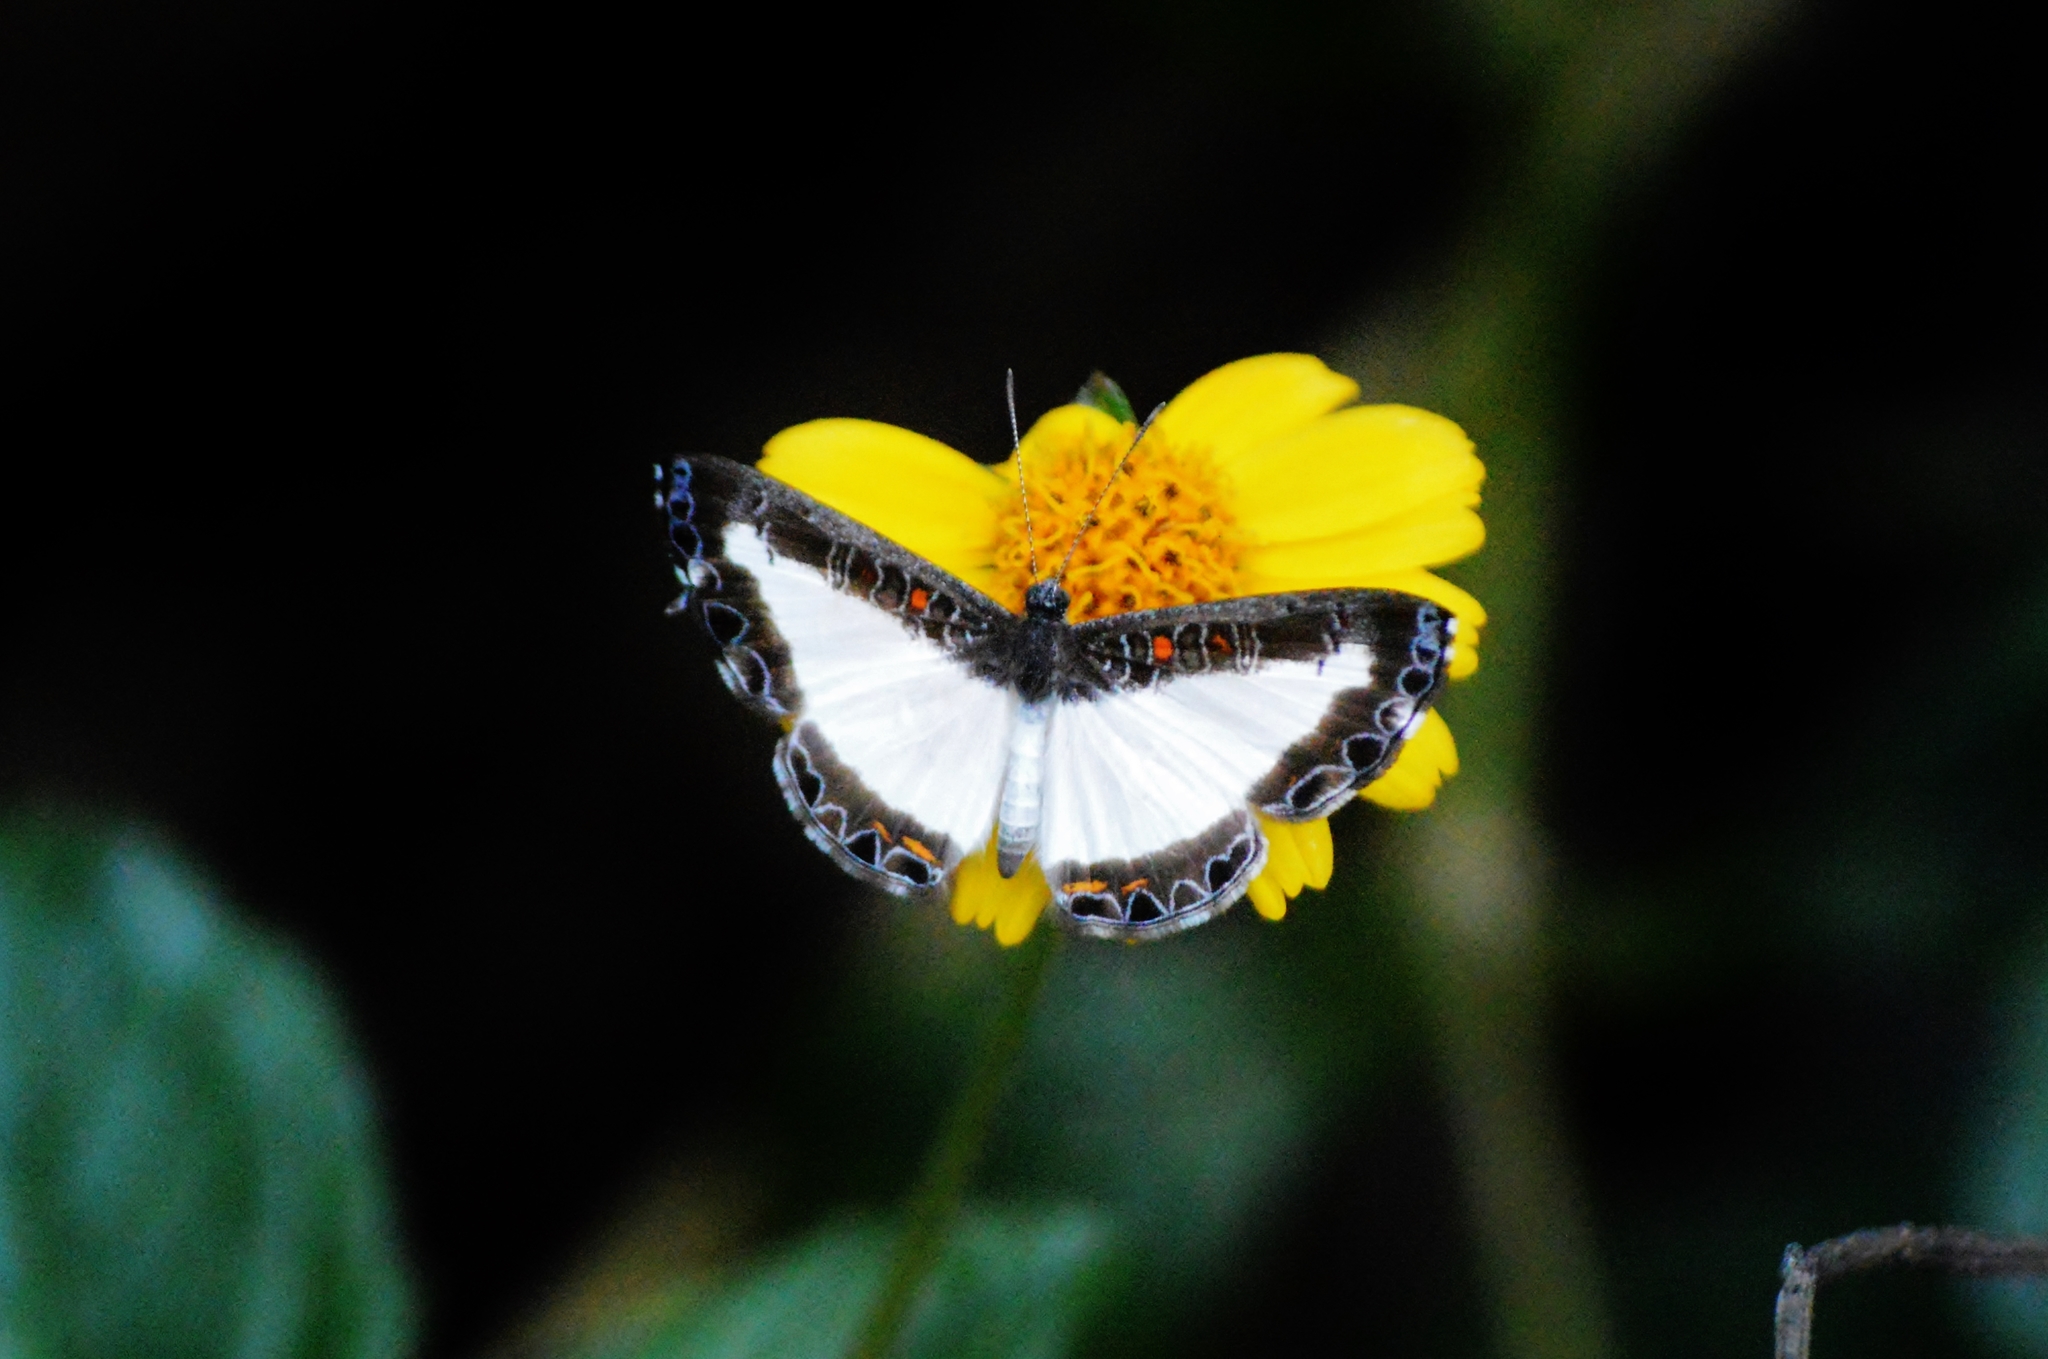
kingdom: Animalia
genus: Nymphidium
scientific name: Nymphidium lisimon
